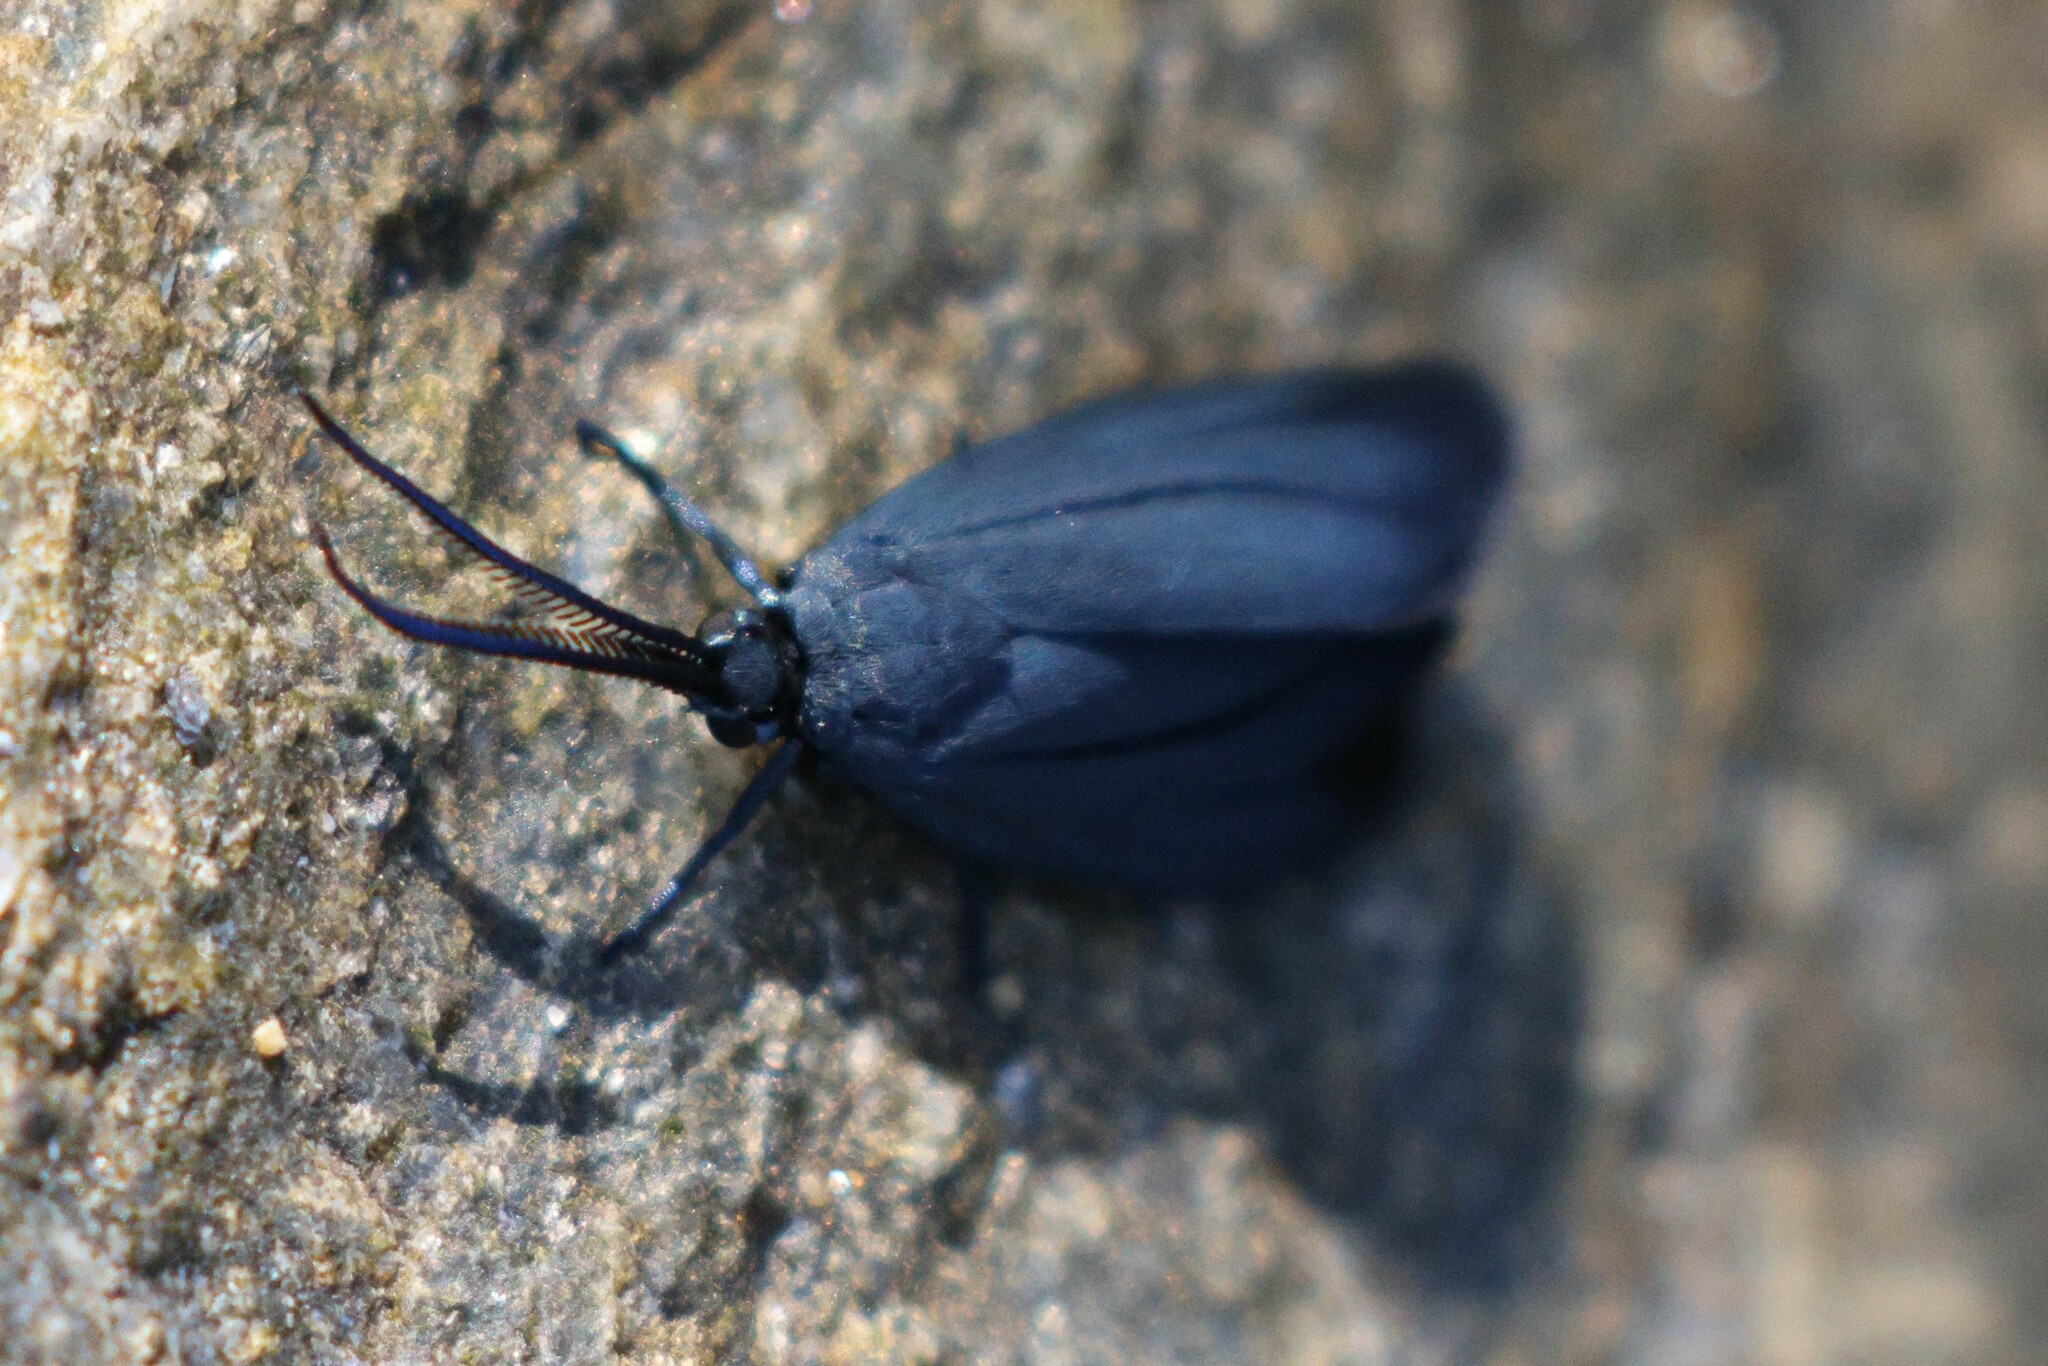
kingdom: Animalia
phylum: Arthropoda
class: Insecta
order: Lepidoptera
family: Zygaenidae
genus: Malamblia
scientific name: Malamblia
